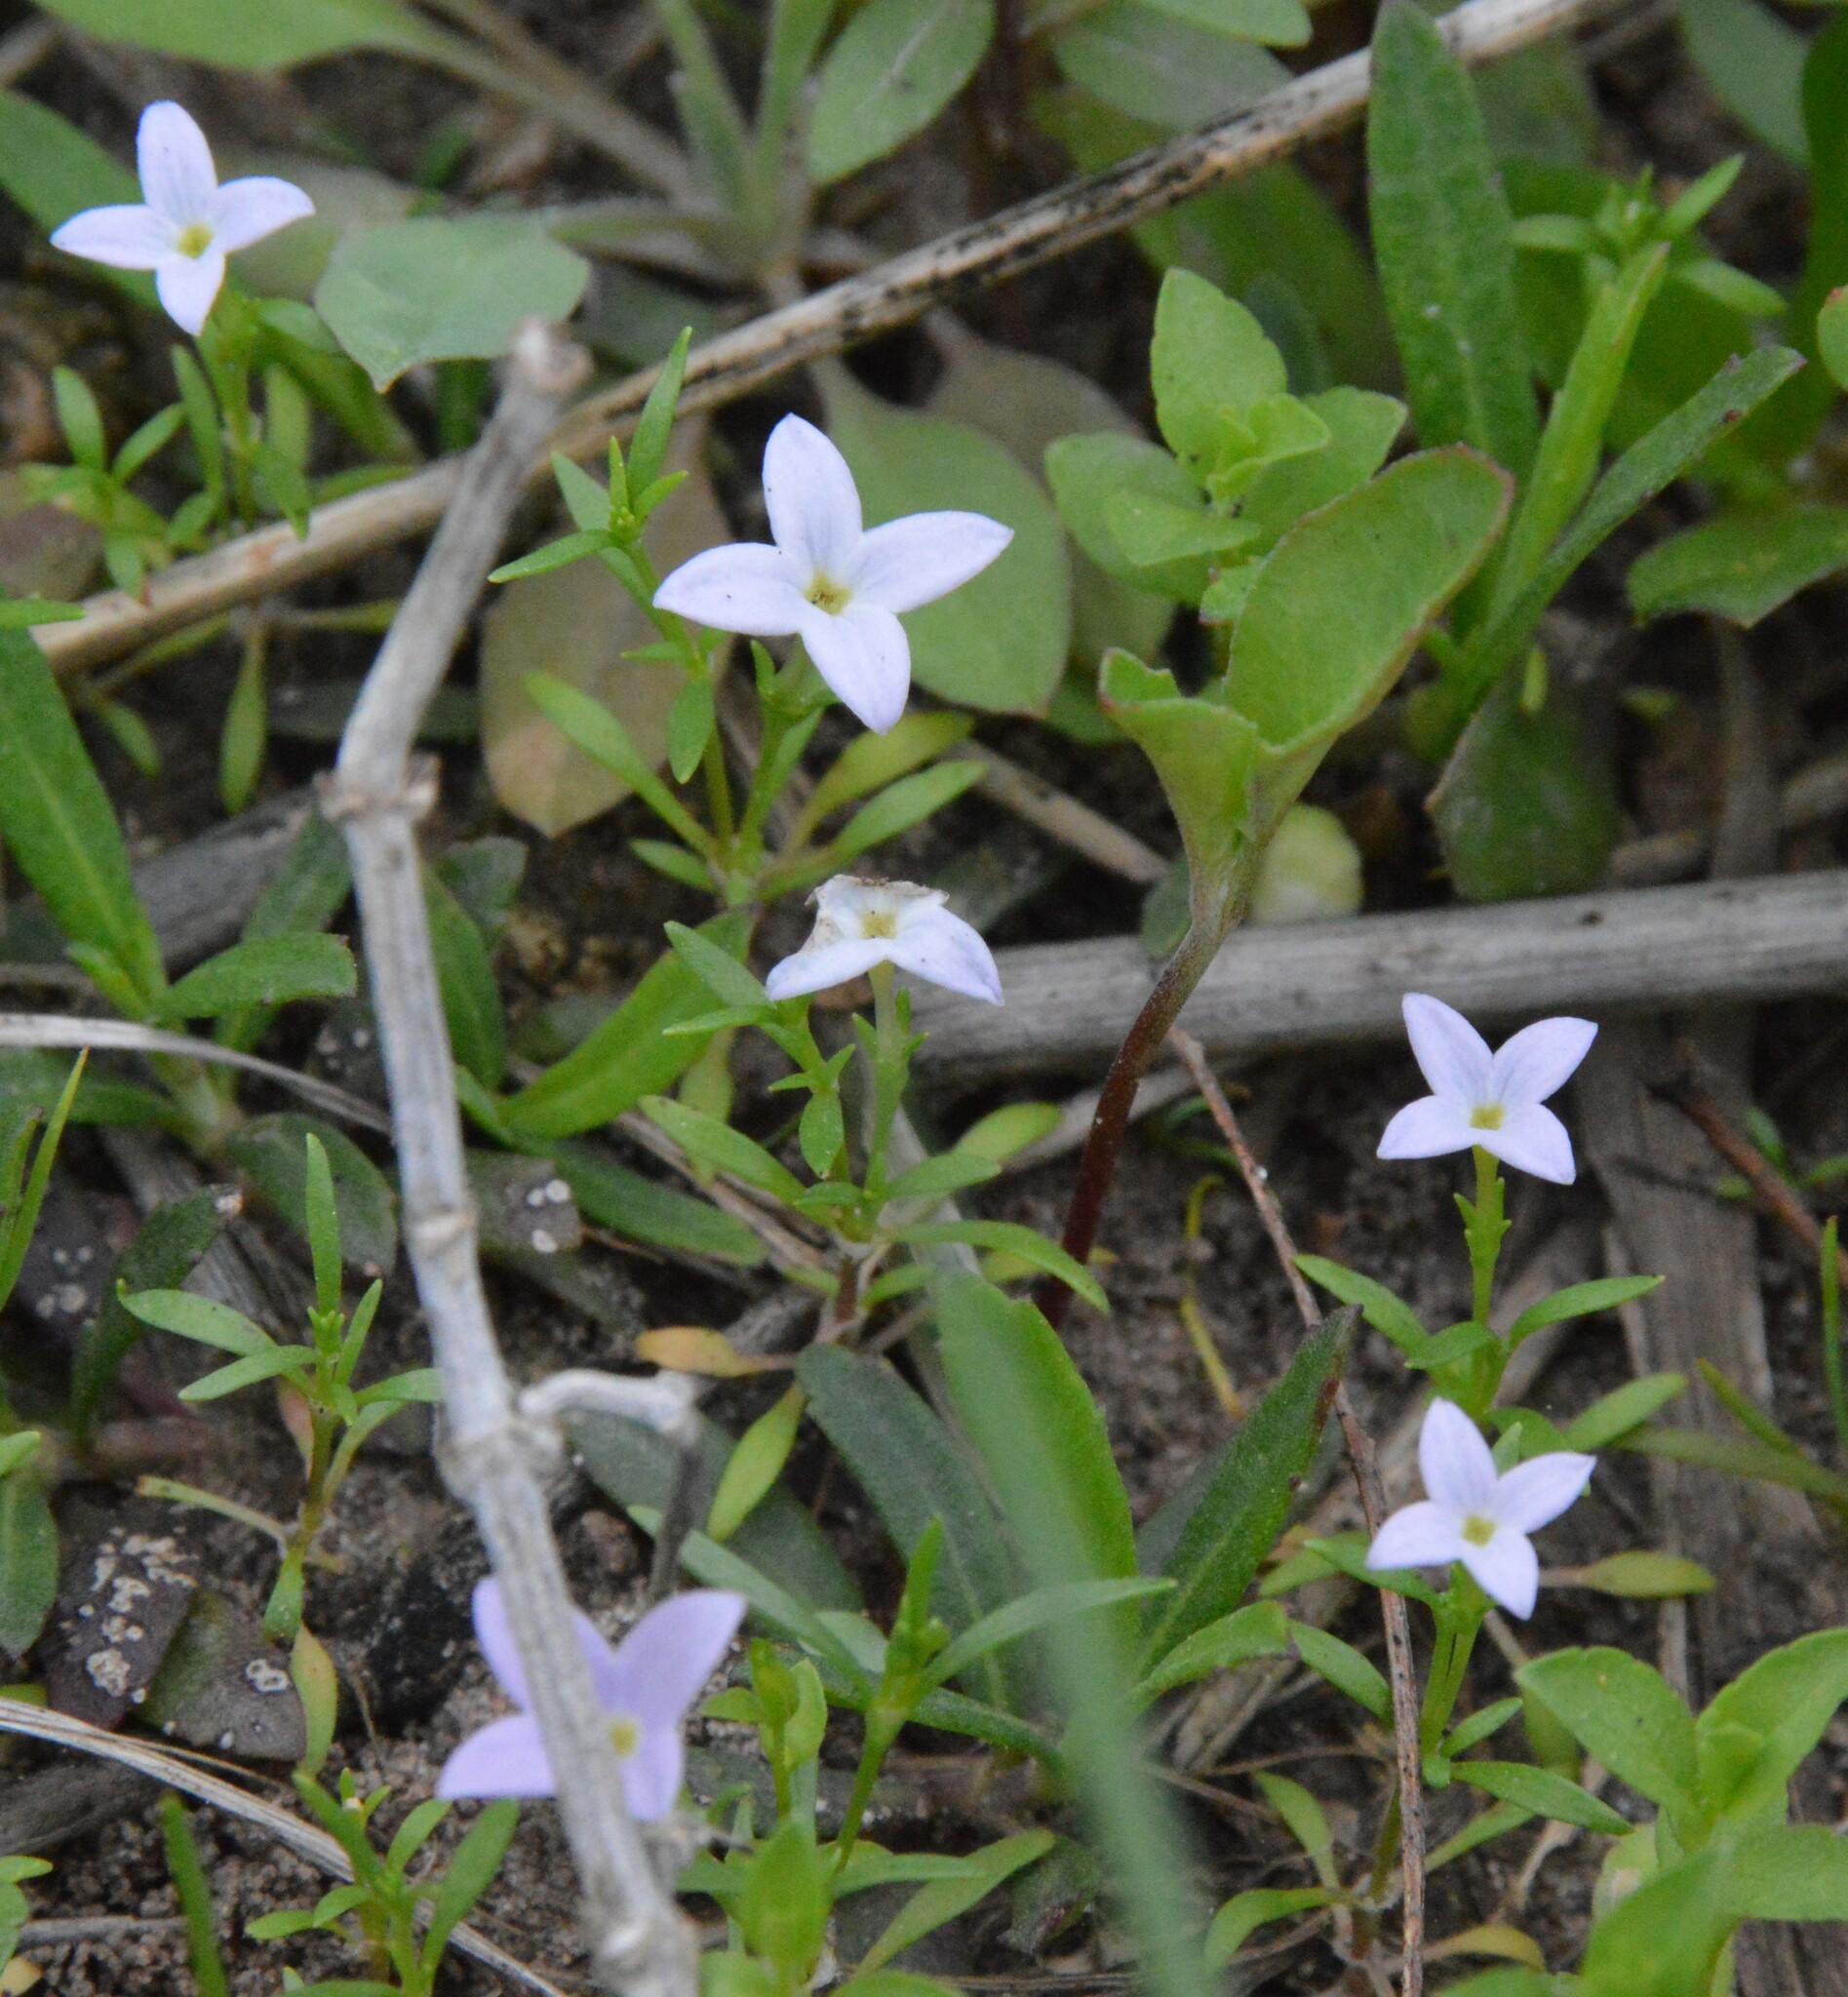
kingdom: Plantae
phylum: Tracheophyta
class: Magnoliopsida
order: Gentianales
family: Rubiaceae
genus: Houstonia
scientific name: Houstonia rosea
